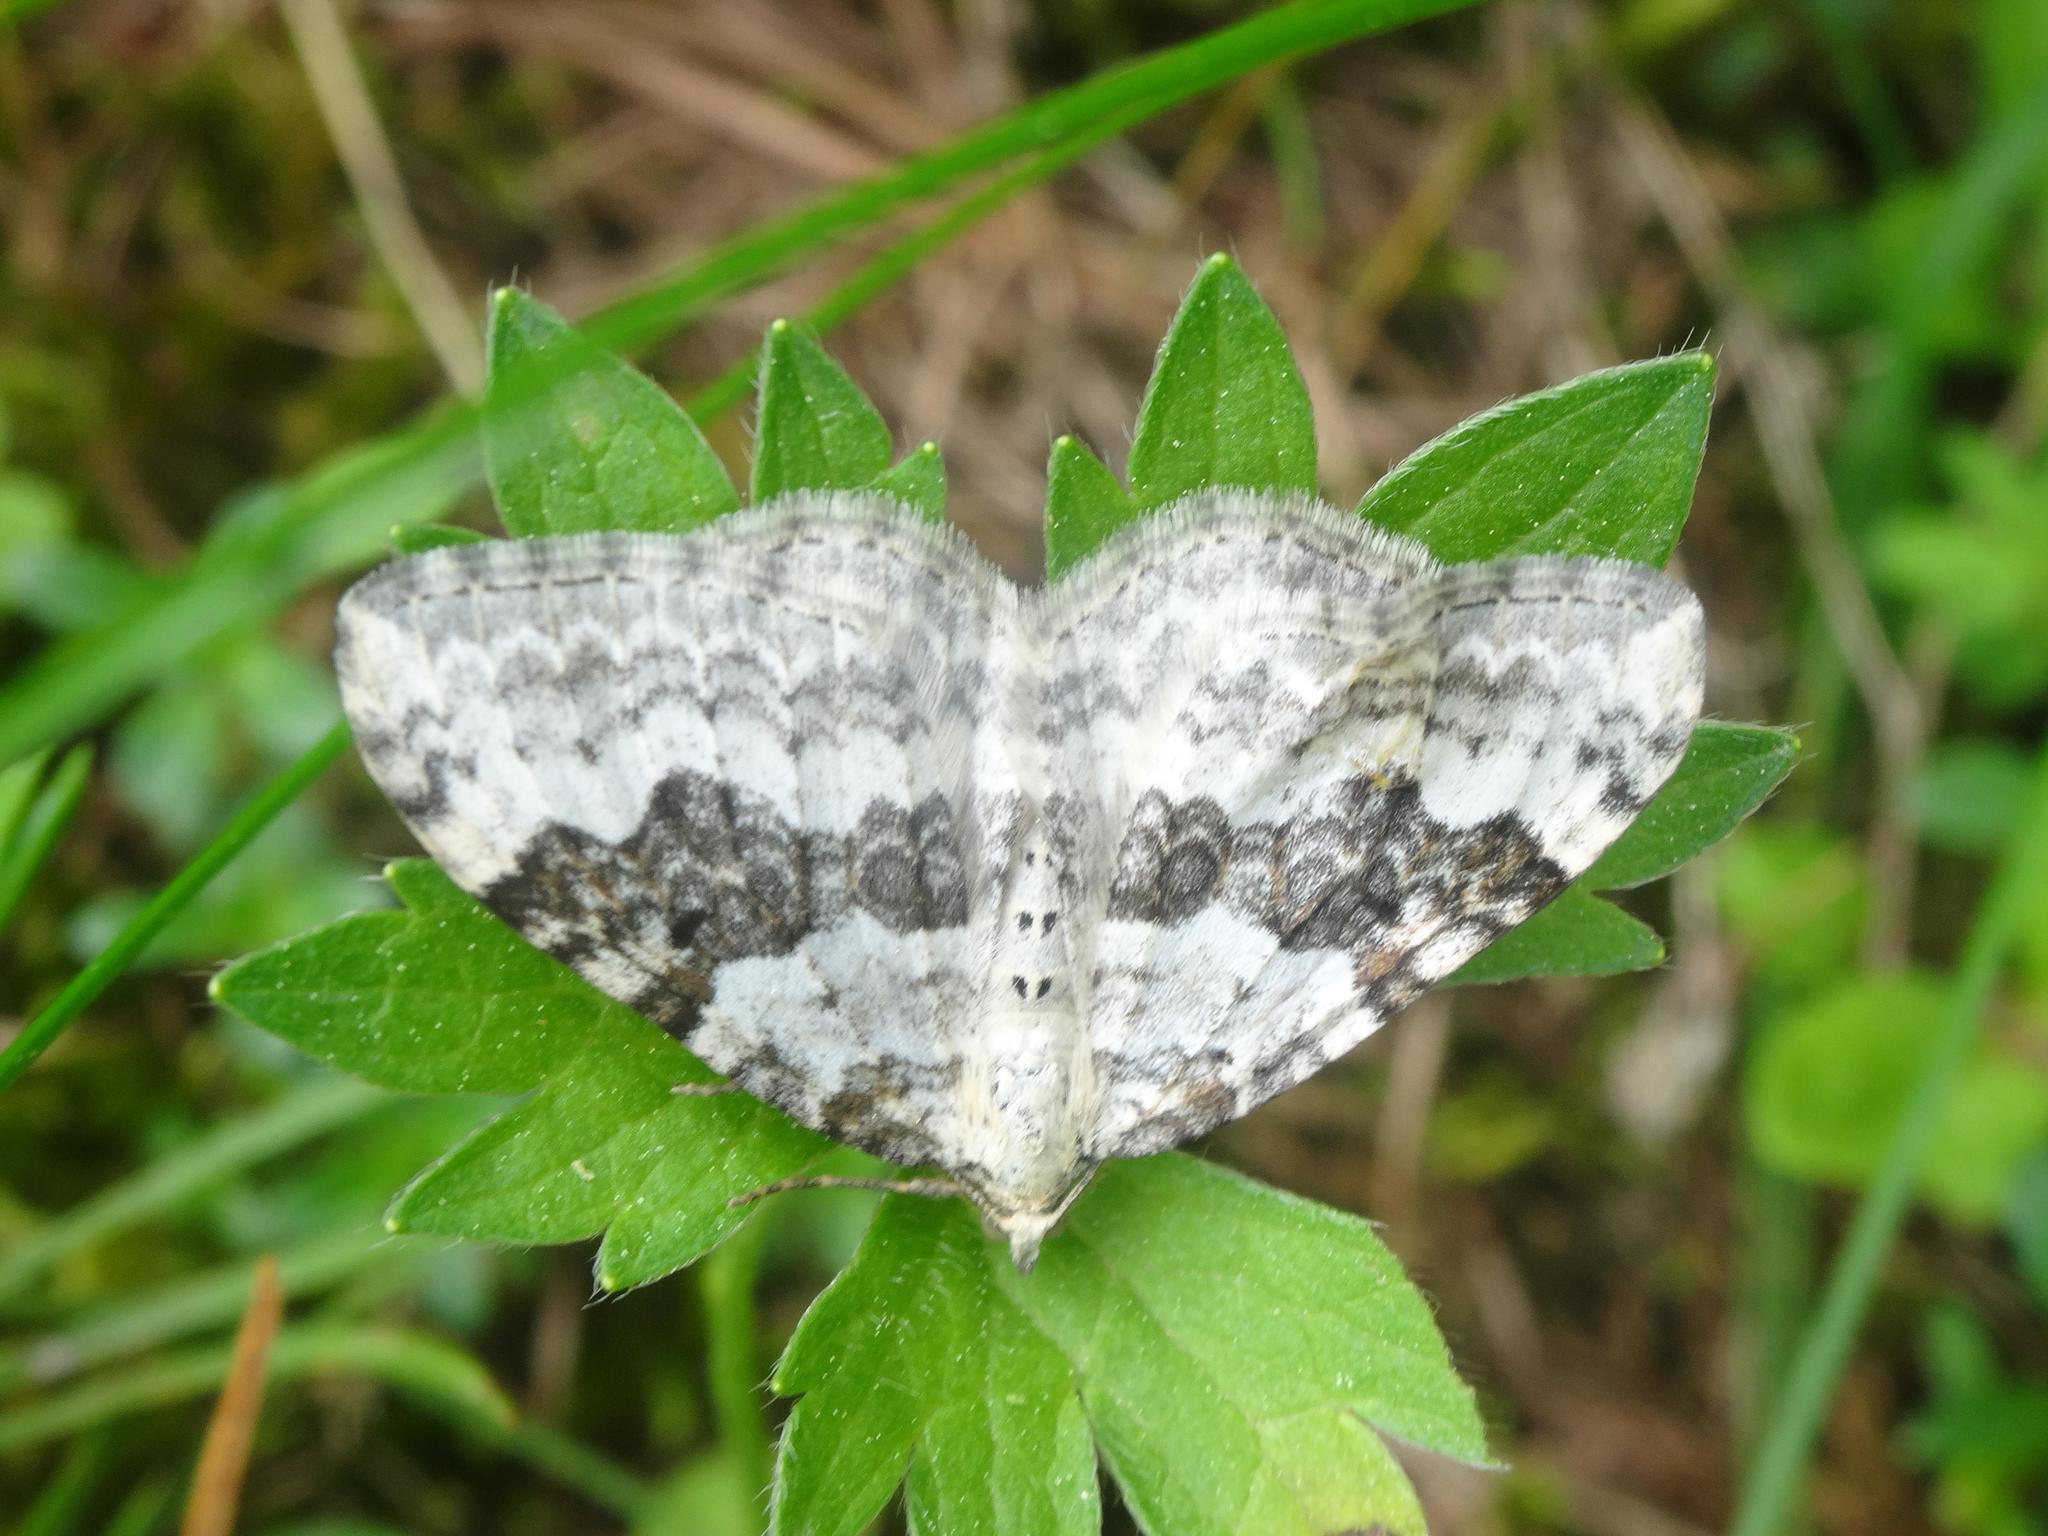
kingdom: Animalia
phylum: Arthropoda
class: Insecta
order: Lepidoptera
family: Geometridae
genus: Xanthorhoe
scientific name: Xanthorhoe montanata
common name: Silver-ground carpet
